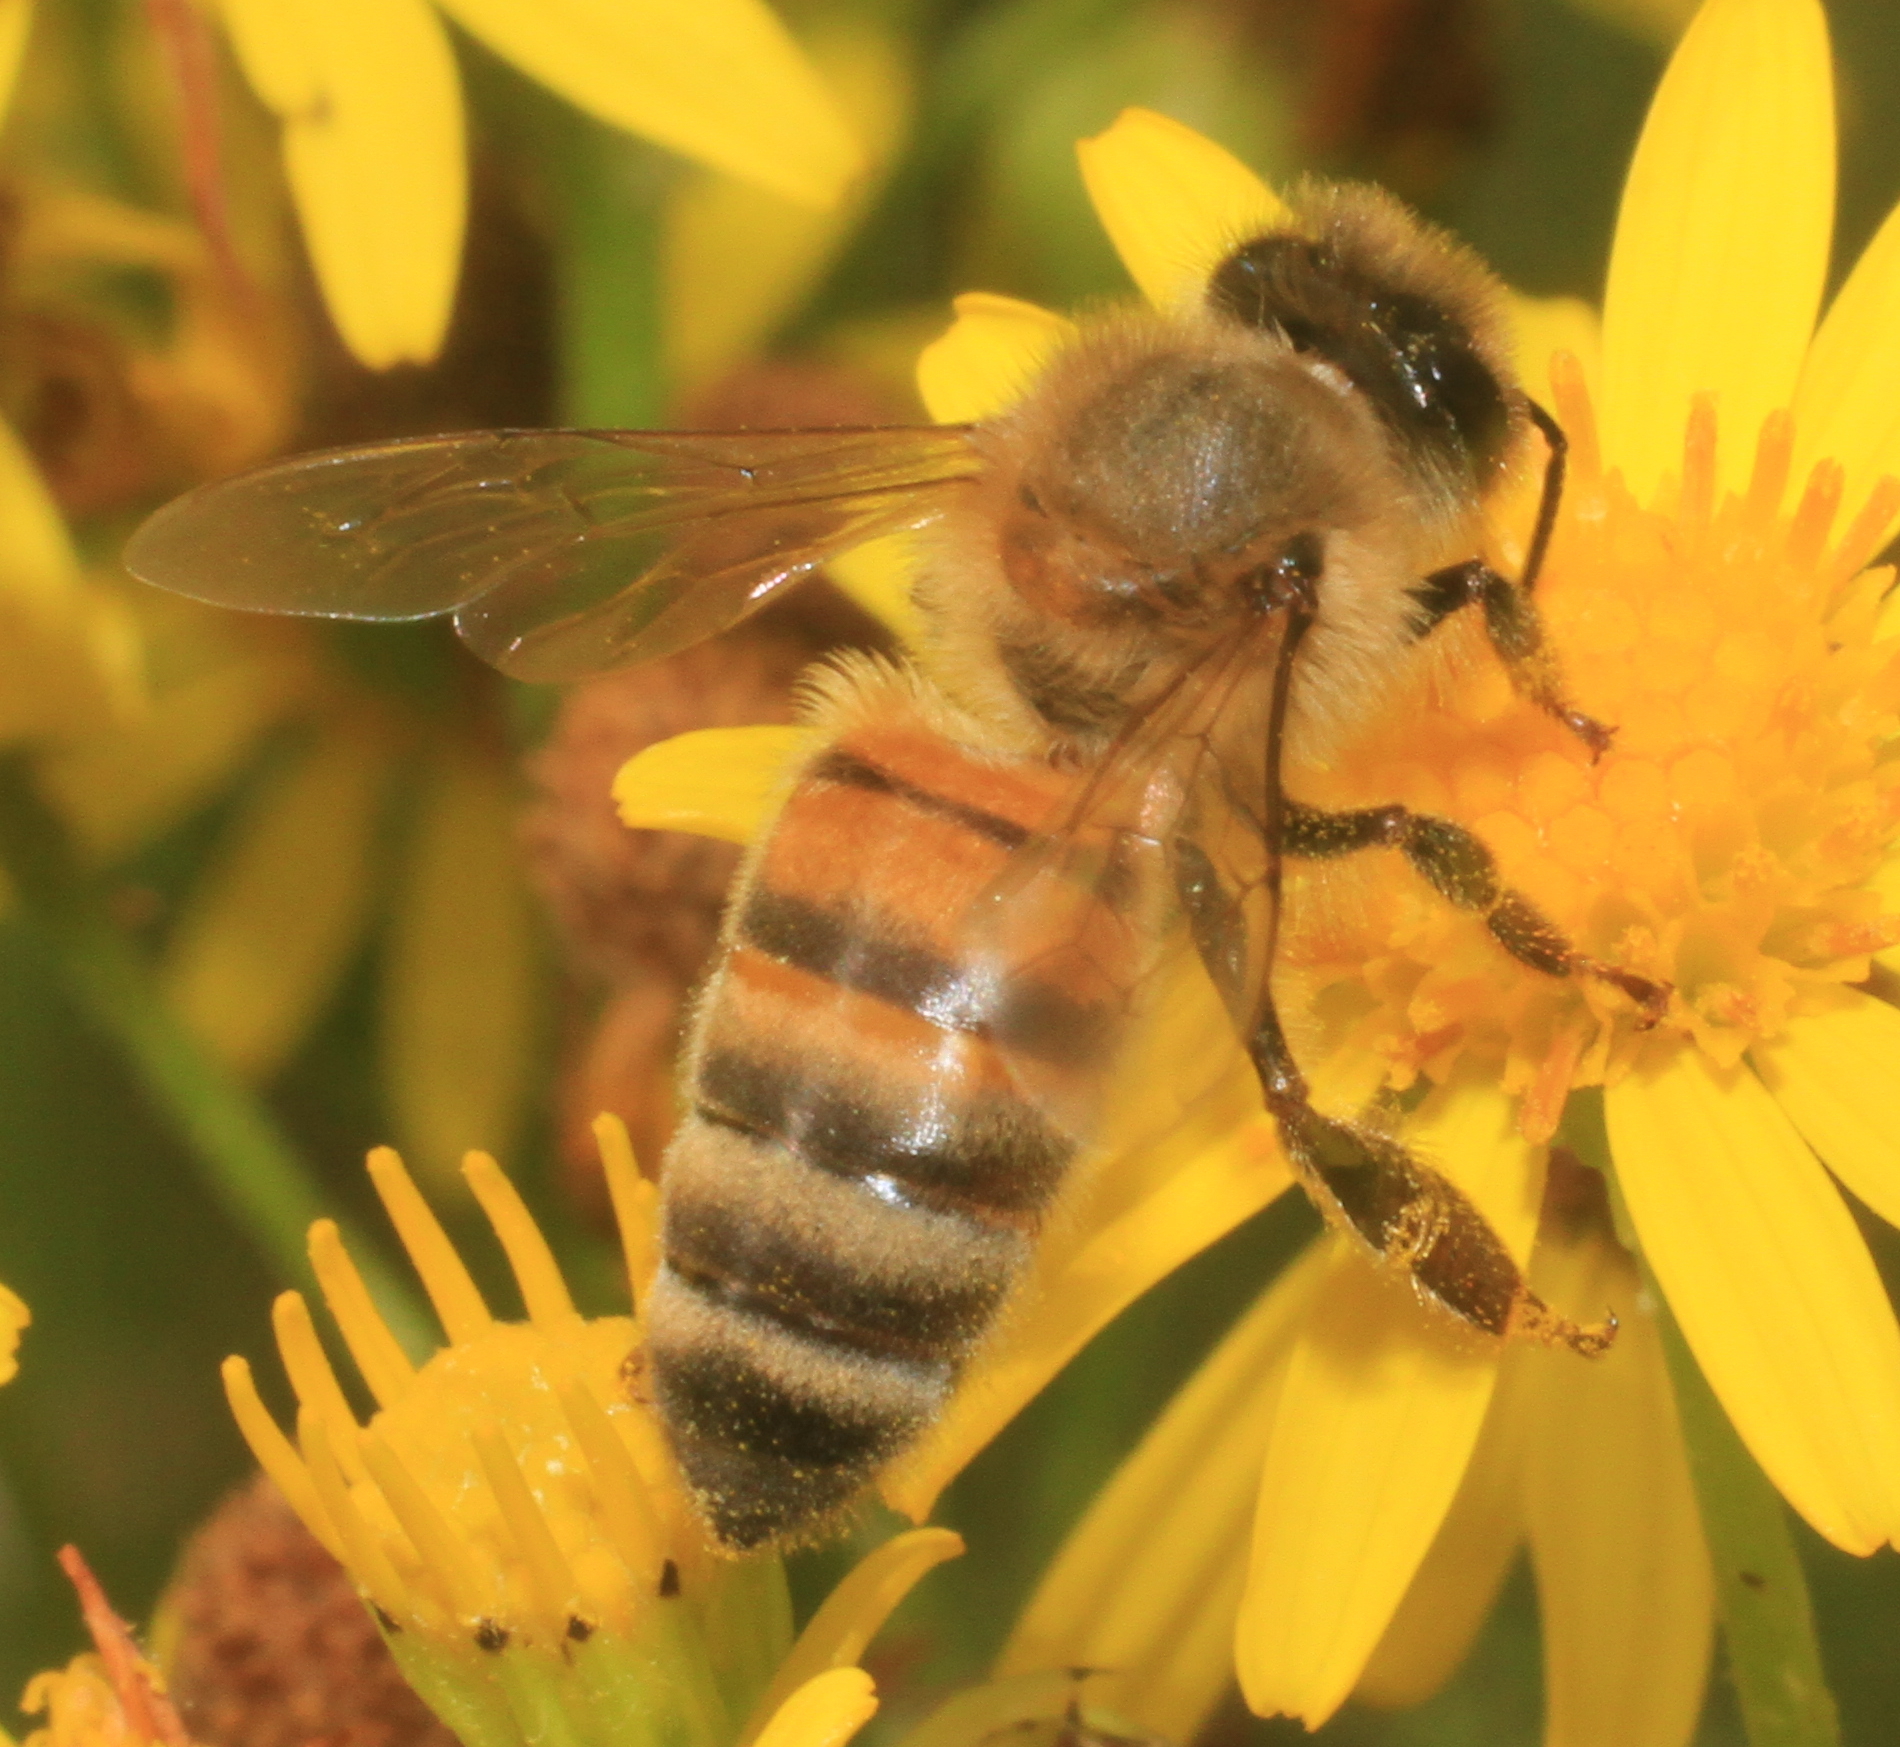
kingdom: Animalia
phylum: Arthropoda
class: Insecta
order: Hymenoptera
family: Apidae
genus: Apis
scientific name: Apis mellifera
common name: Honey bee
